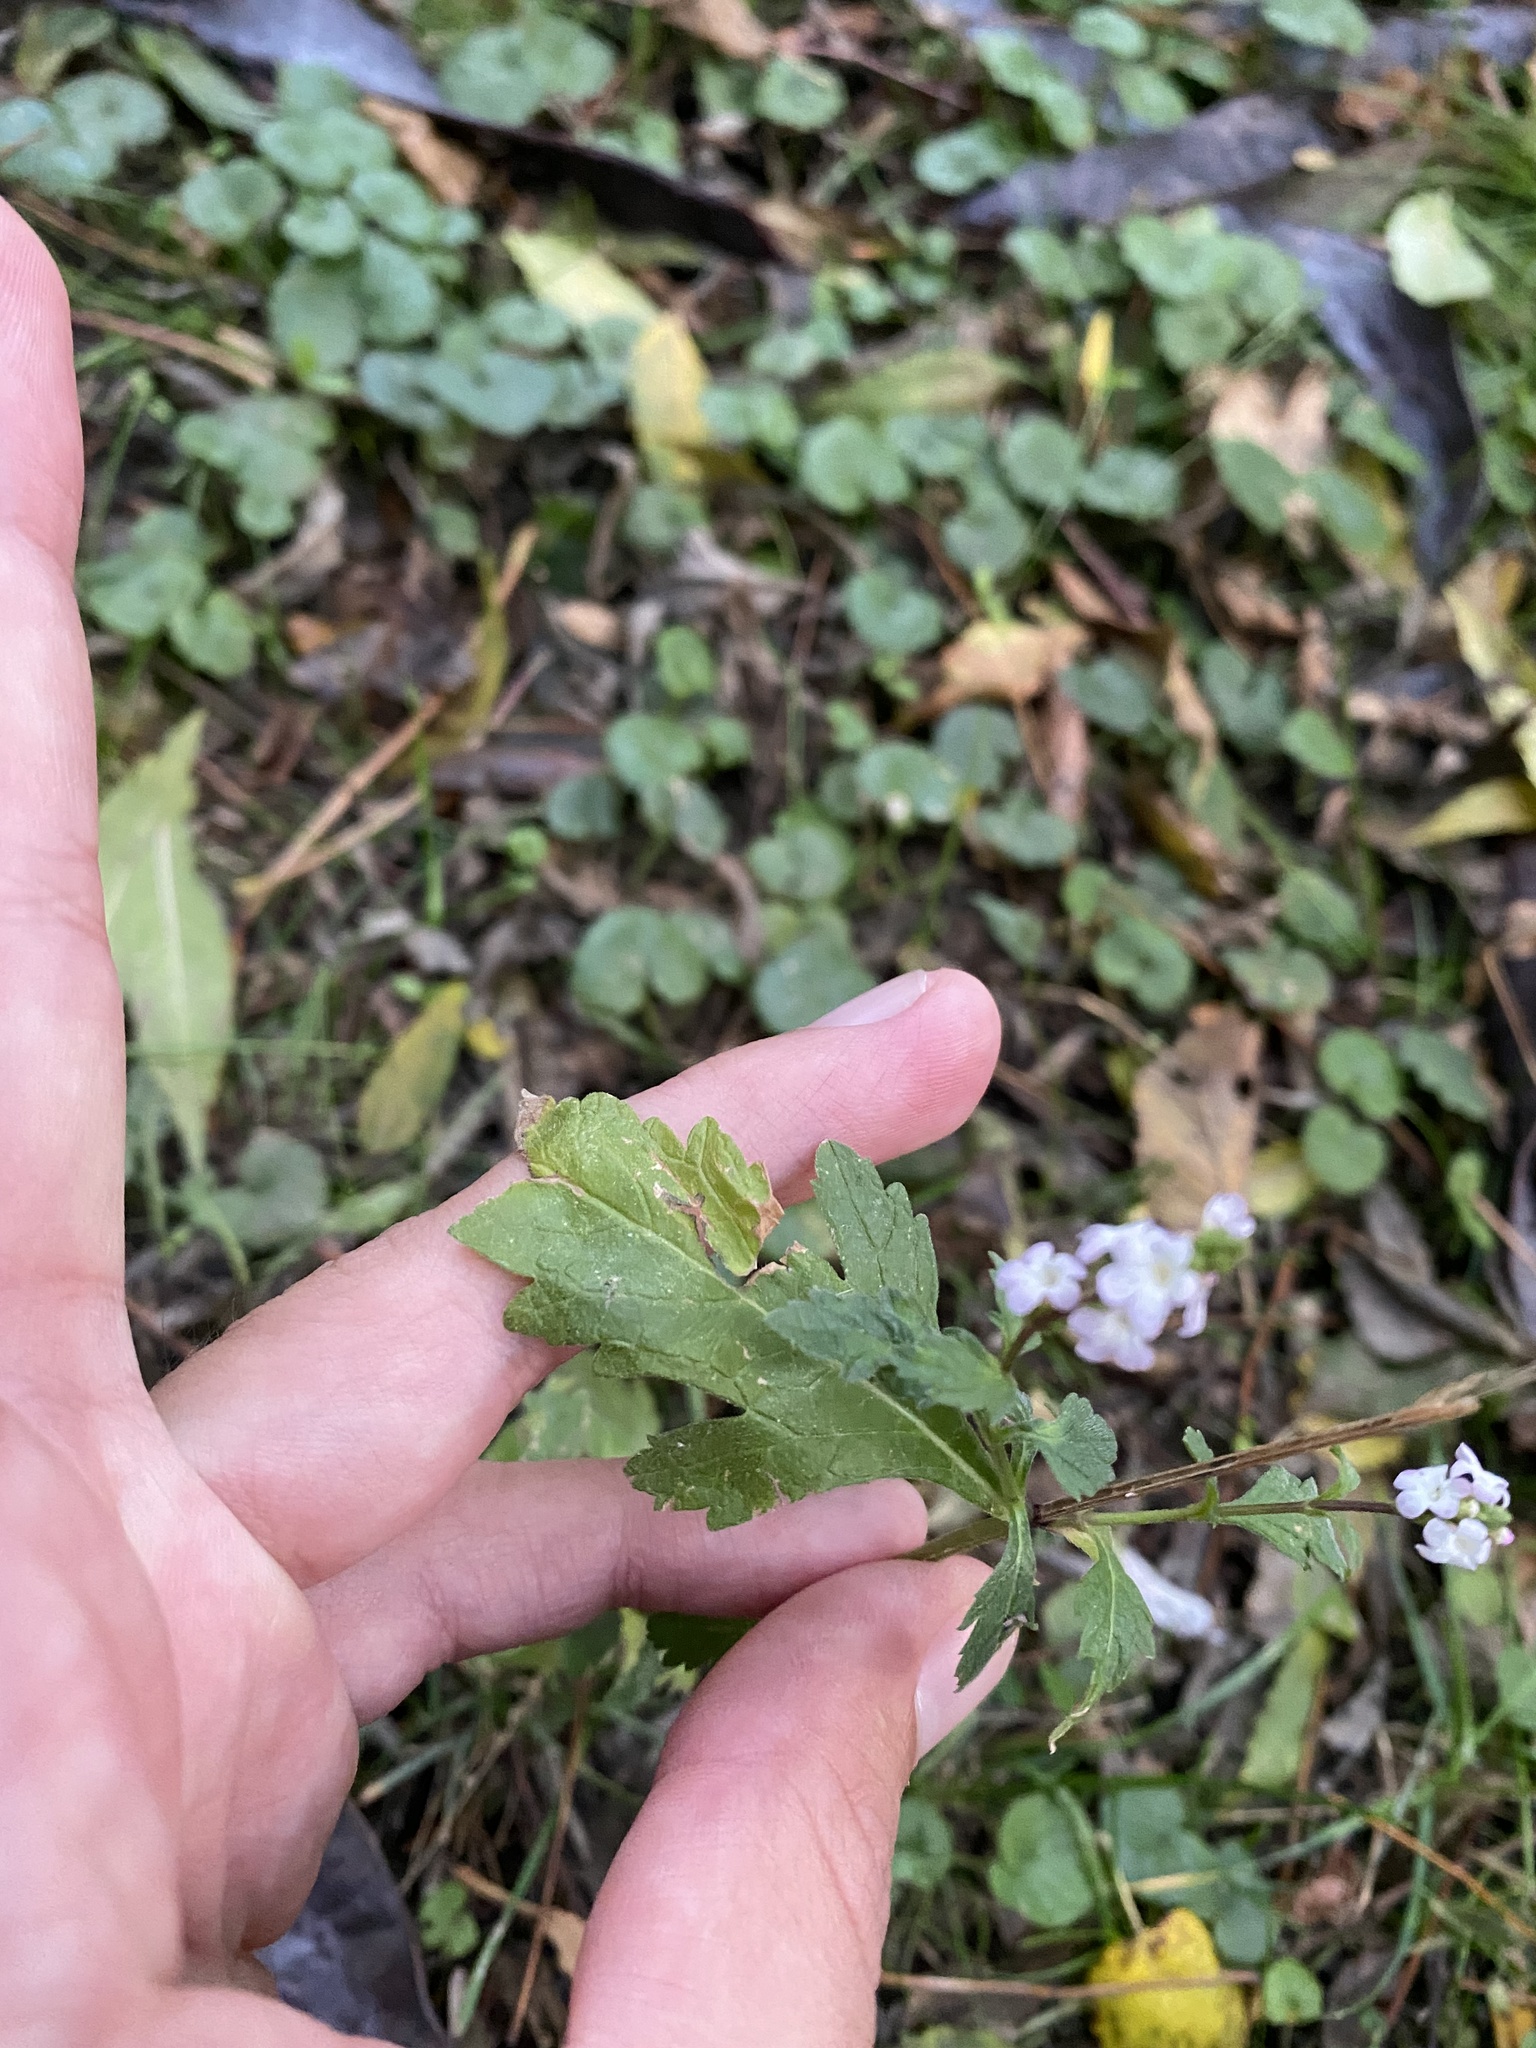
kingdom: Plantae
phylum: Tracheophyta
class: Magnoliopsida
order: Lamiales
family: Verbenaceae
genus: Verbena
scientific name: Verbena officinalis
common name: Vervain
